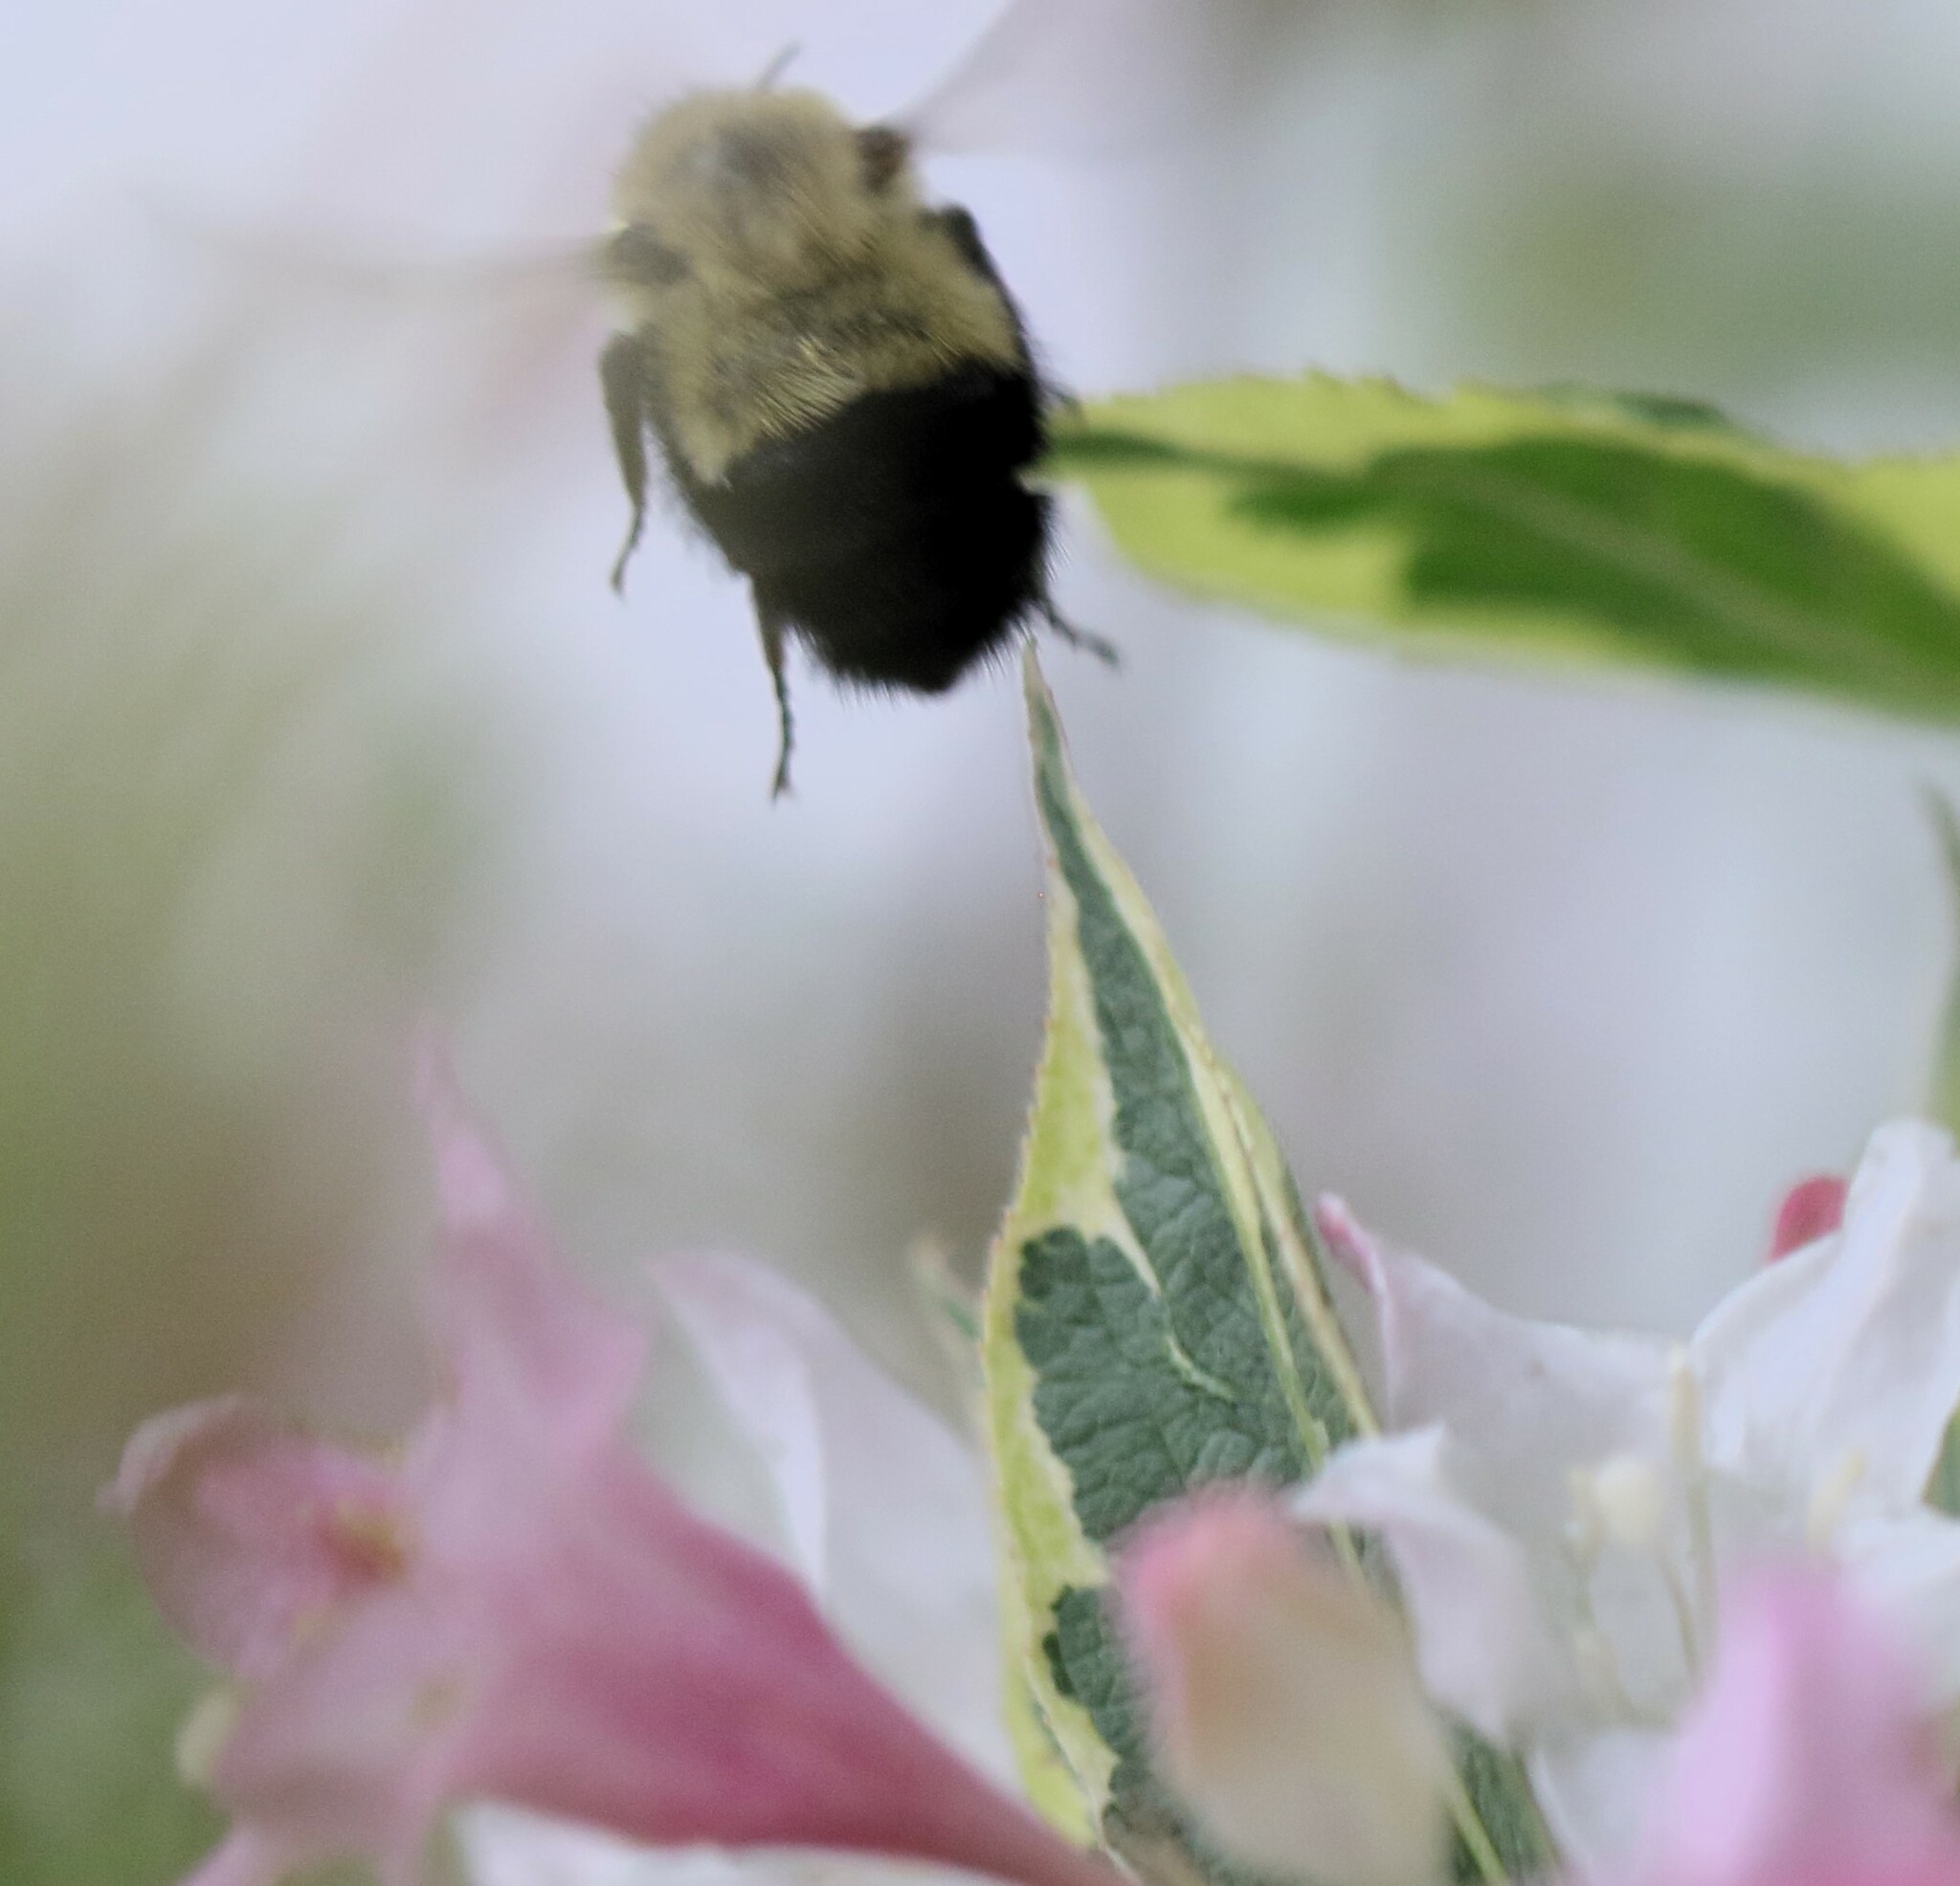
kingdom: Animalia
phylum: Arthropoda
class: Insecta
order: Hymenoptera
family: Apidae
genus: Pyrobombus
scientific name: Pyrobombus
